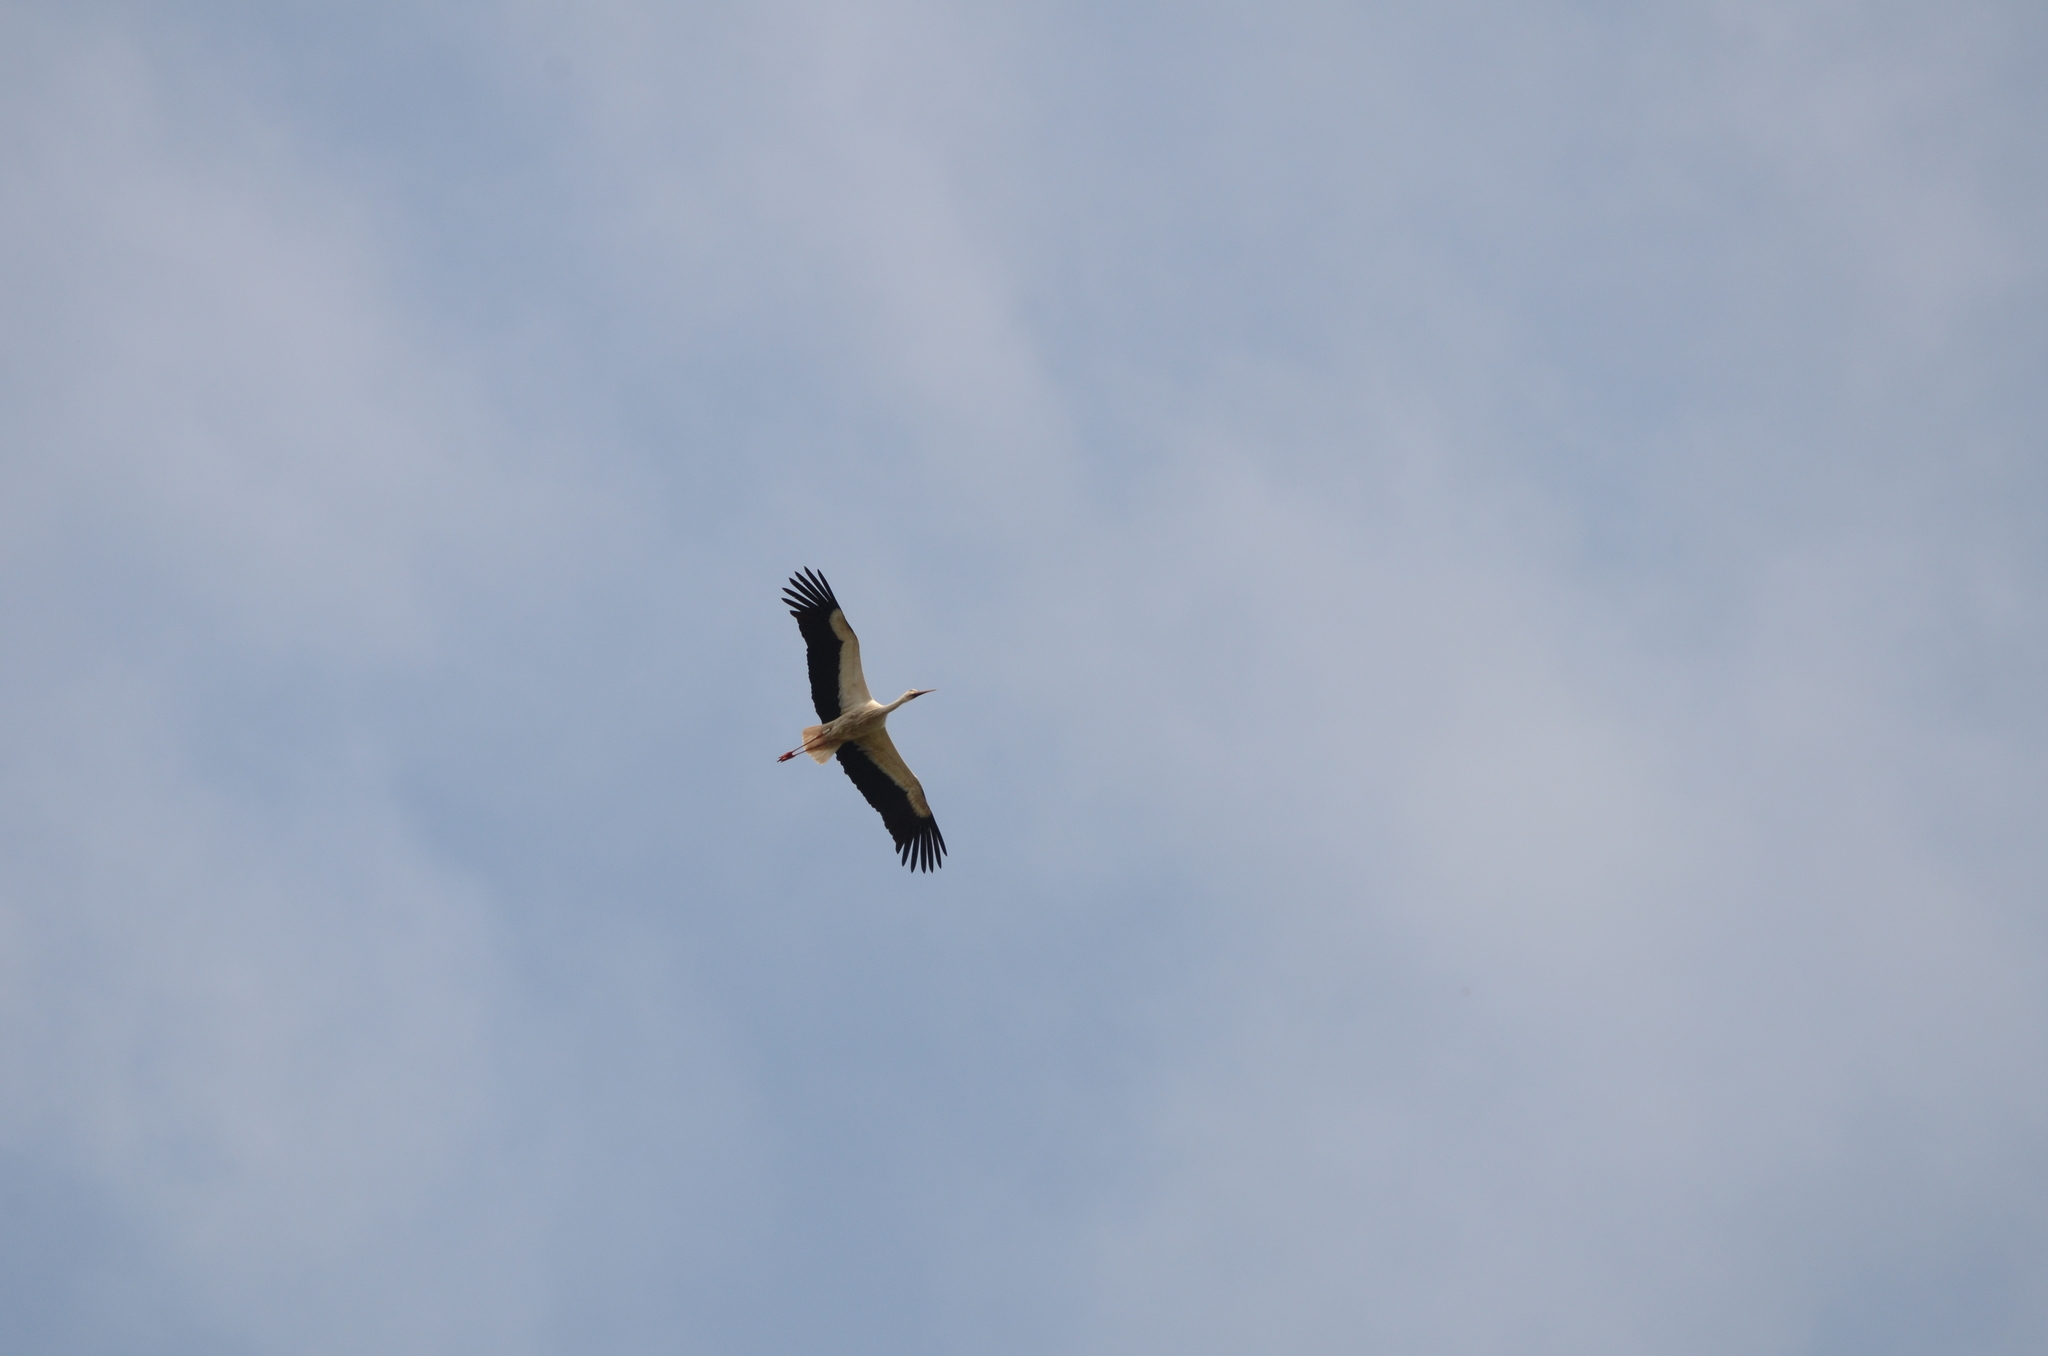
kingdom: Animalia
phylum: Chordata
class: Aves
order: Ciconiiformes
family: Ciconiidae
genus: Ciconia
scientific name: Ciconia ciconia
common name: White stork
